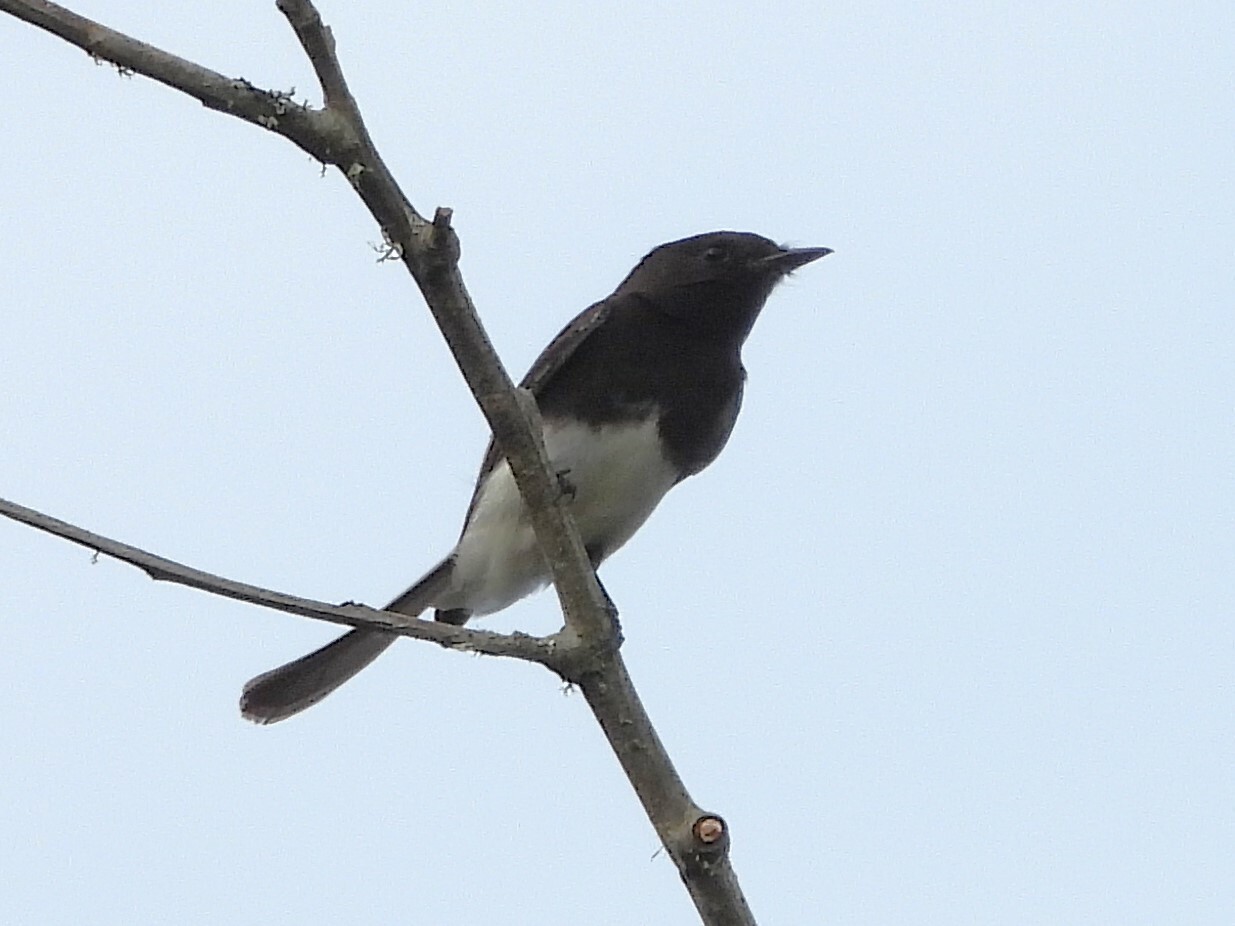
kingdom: Animalia
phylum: Chordata
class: Aves
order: Passeriformes
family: Tyrannidae
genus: Sayornis
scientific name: Sayornis nigricans
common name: Black phoebe
